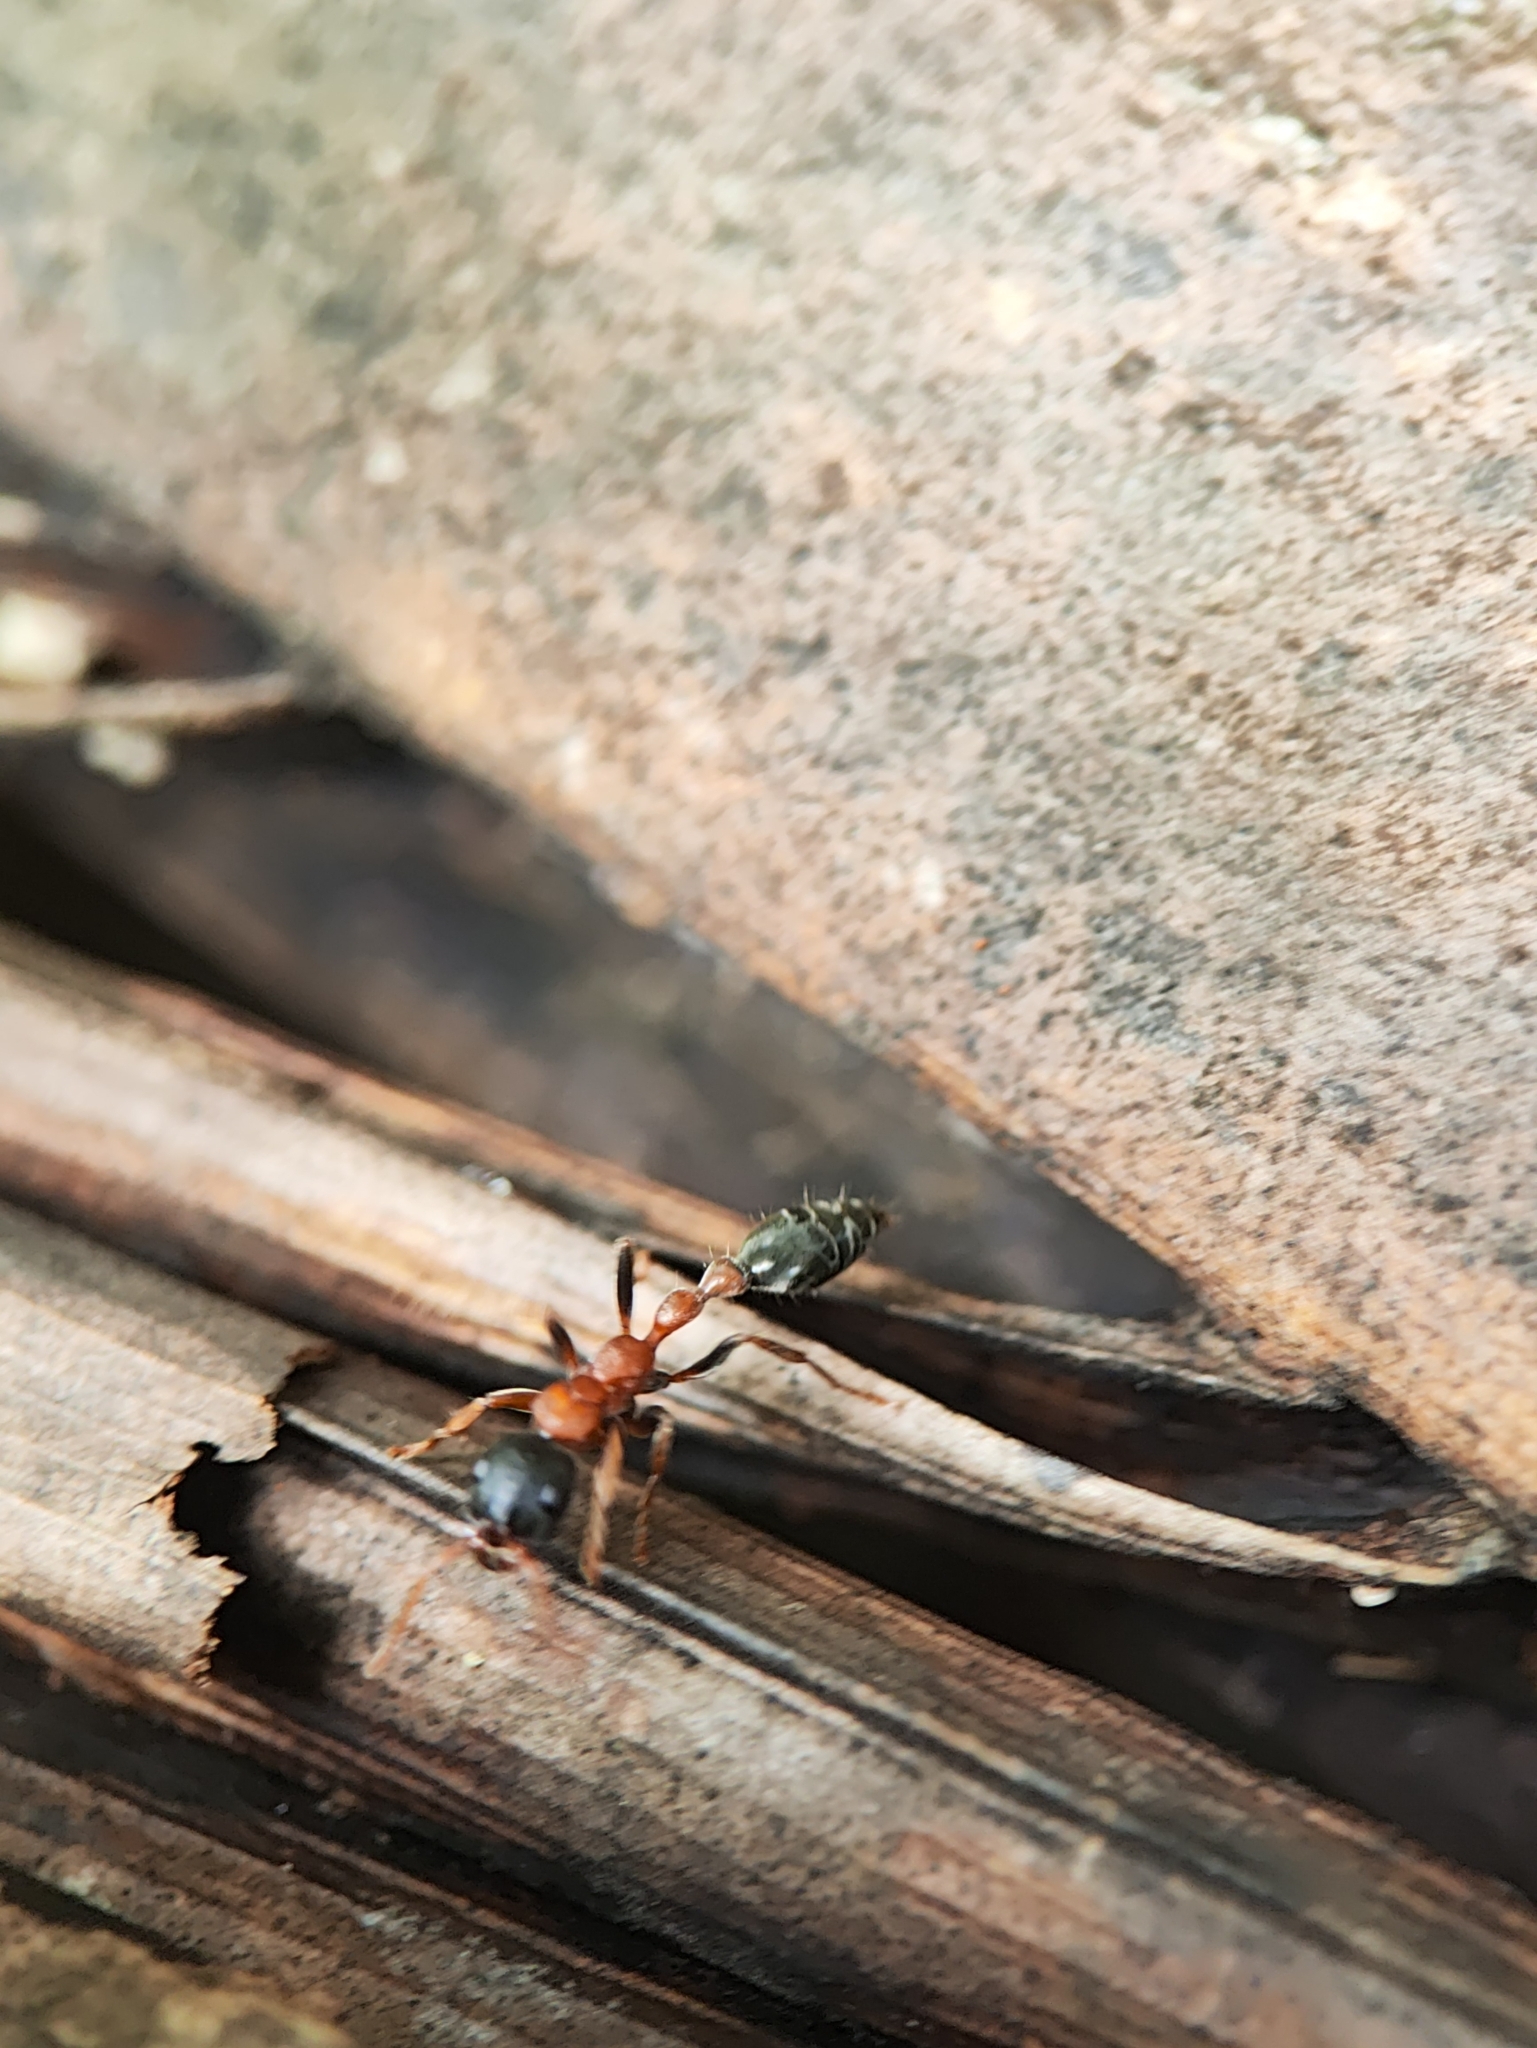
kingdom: Animalia
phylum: Arthropoda
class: Insecta
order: Hymenoptera
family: Formicidae
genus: Tetraponera
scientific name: Tetraponera rufonigra
